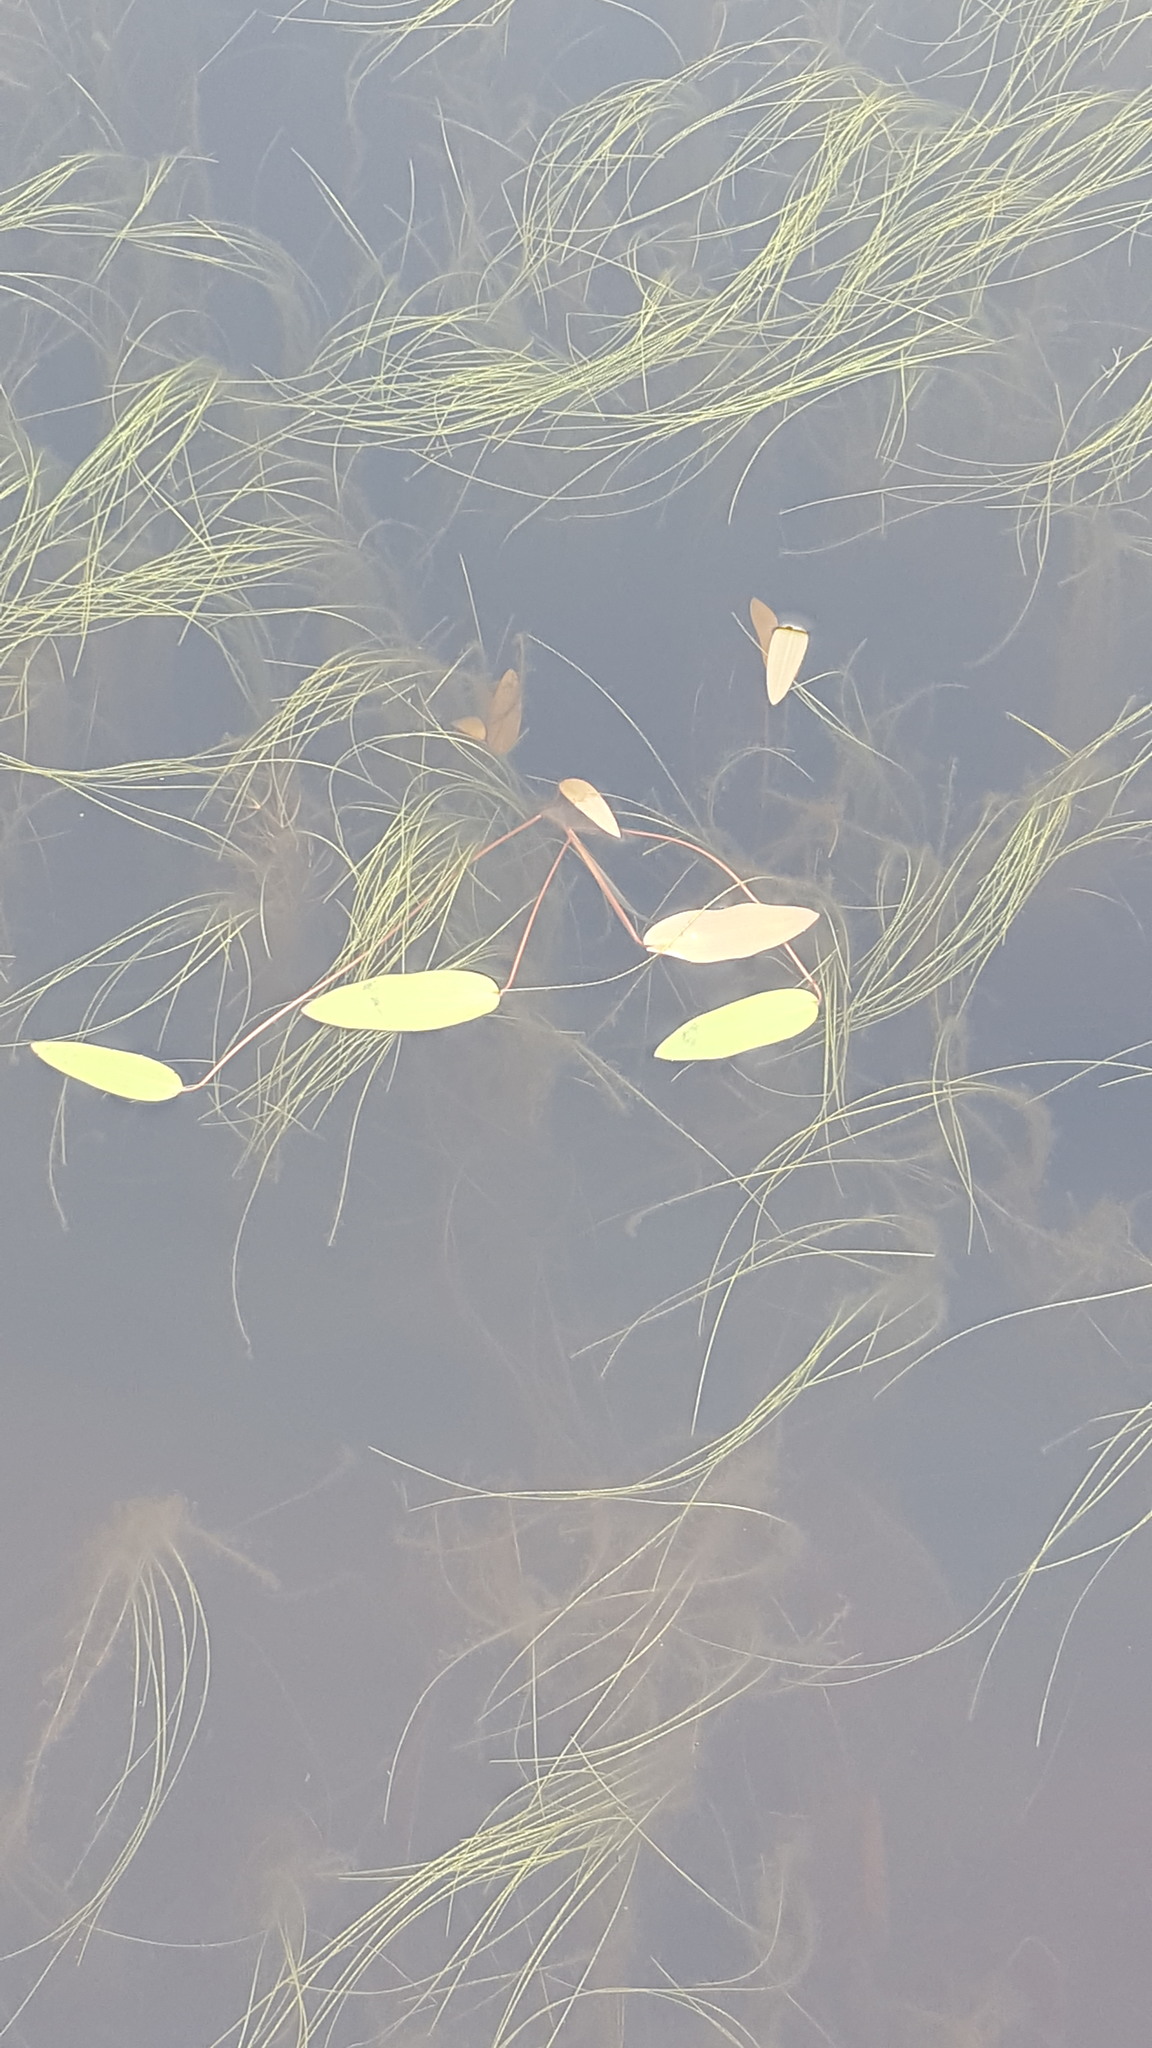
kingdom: Plantae
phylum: Tracheophyta
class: Liliopsida
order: Poales
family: Cyperaceae
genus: Schoenoplectus
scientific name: Schoenoplectus subterminalis
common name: Swaying bulrush
